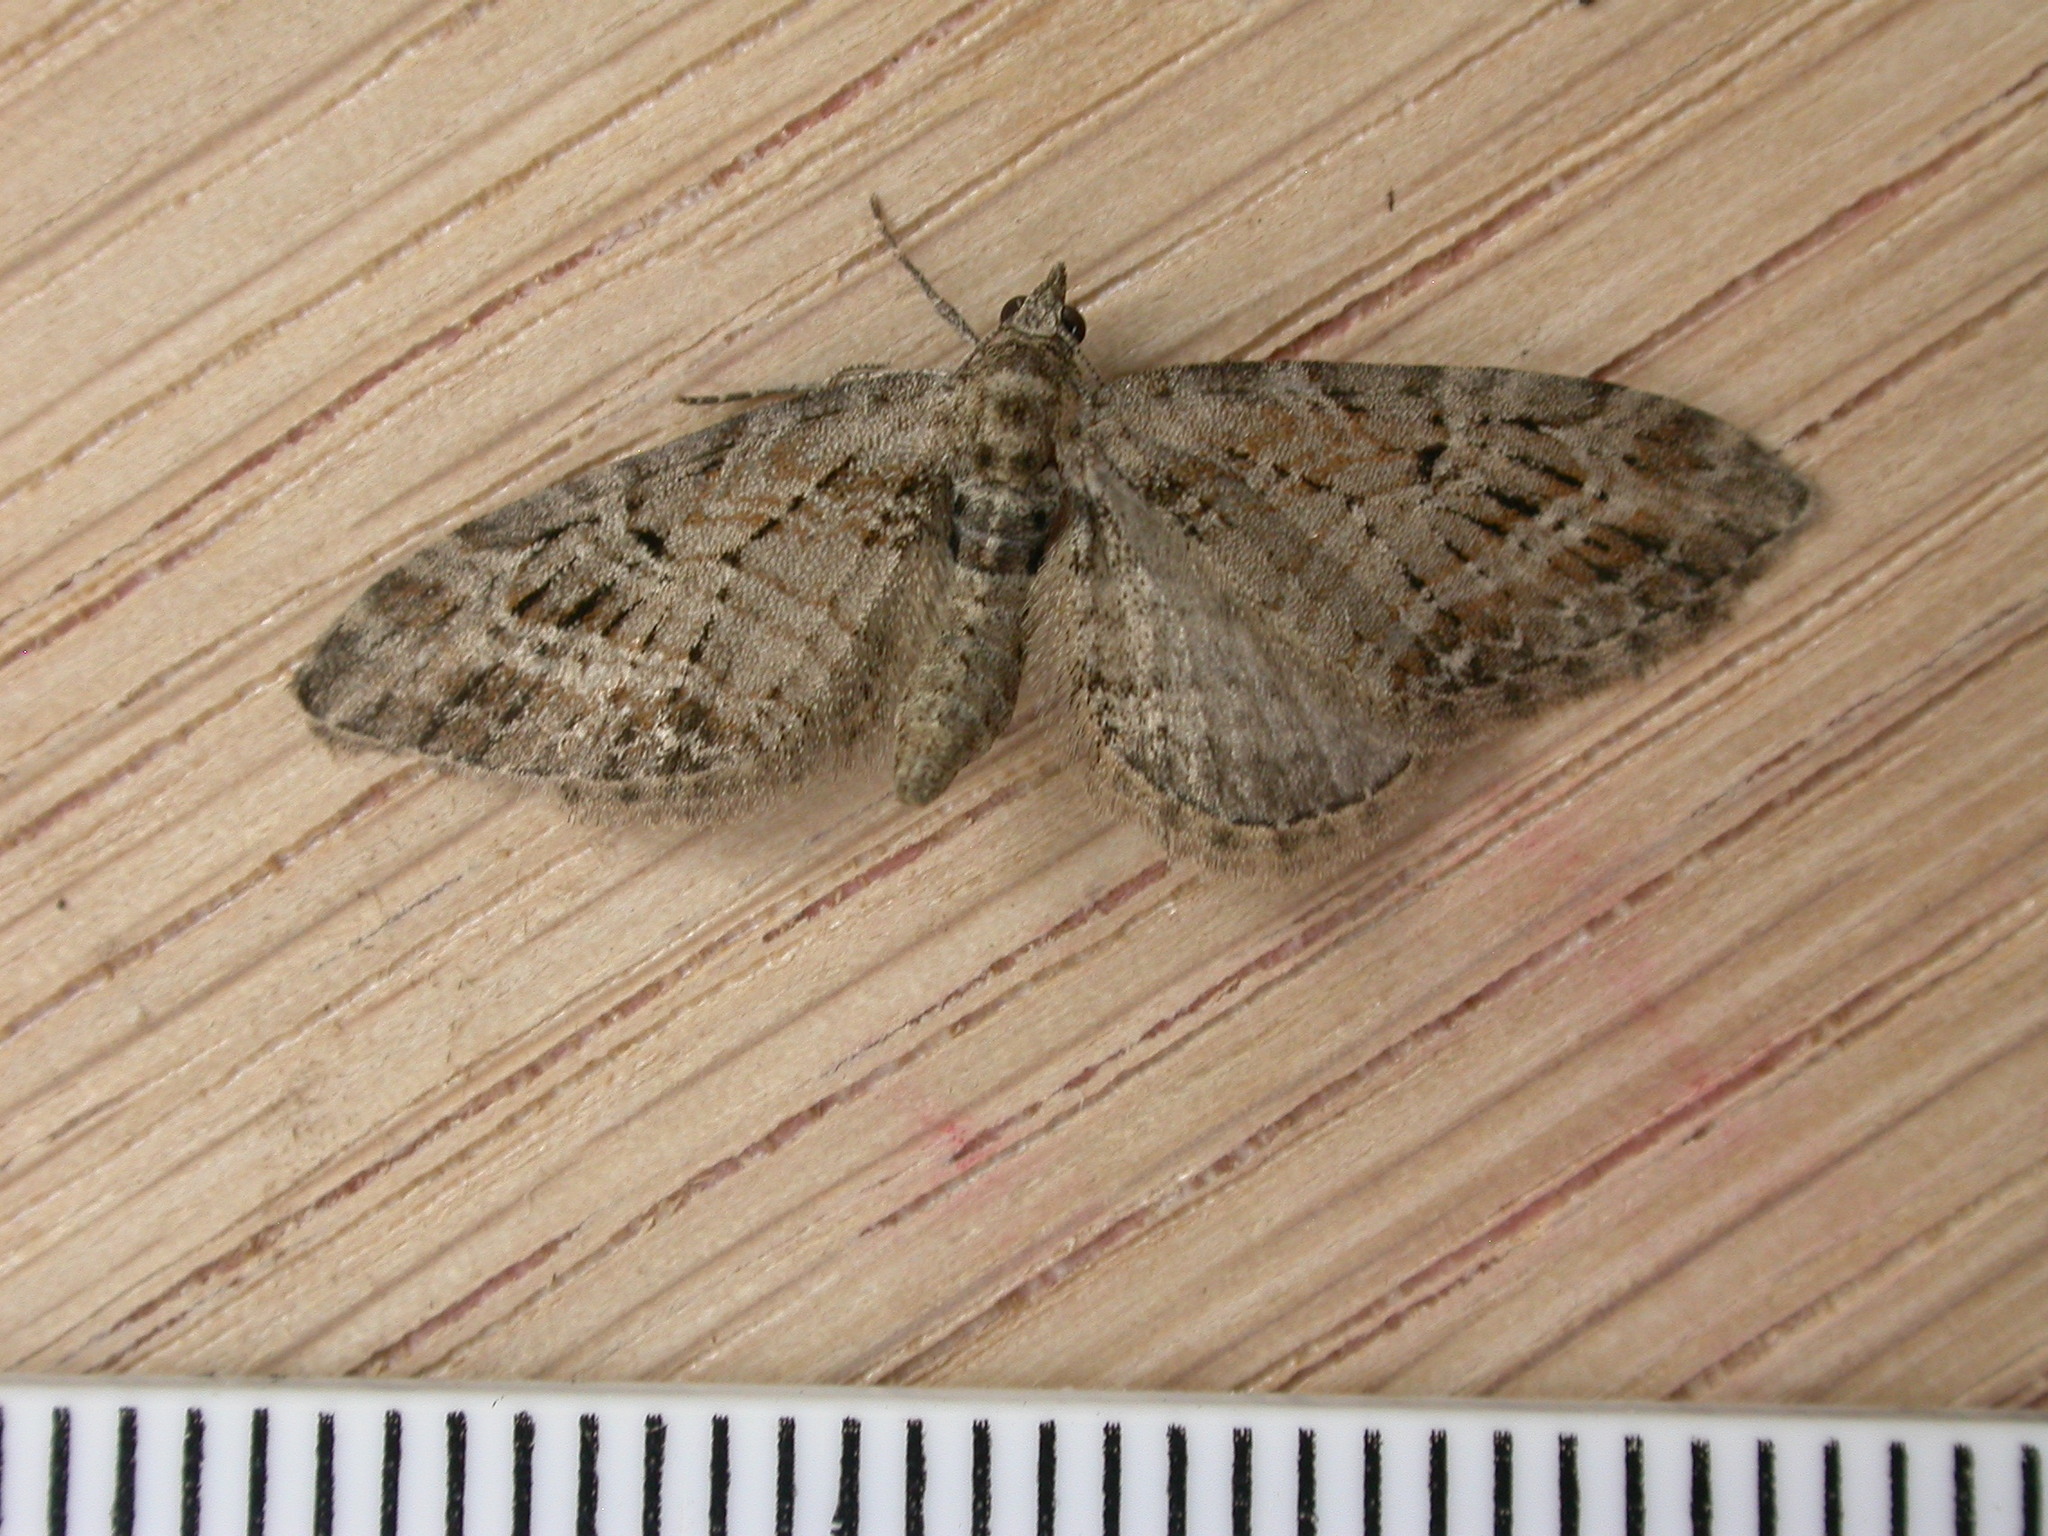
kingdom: Animalia
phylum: Arthropoda
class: Insecta
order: Lepidoptera
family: Geometridae
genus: Eupithecia
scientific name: Eupithecia exiguata
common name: Mottled pug
